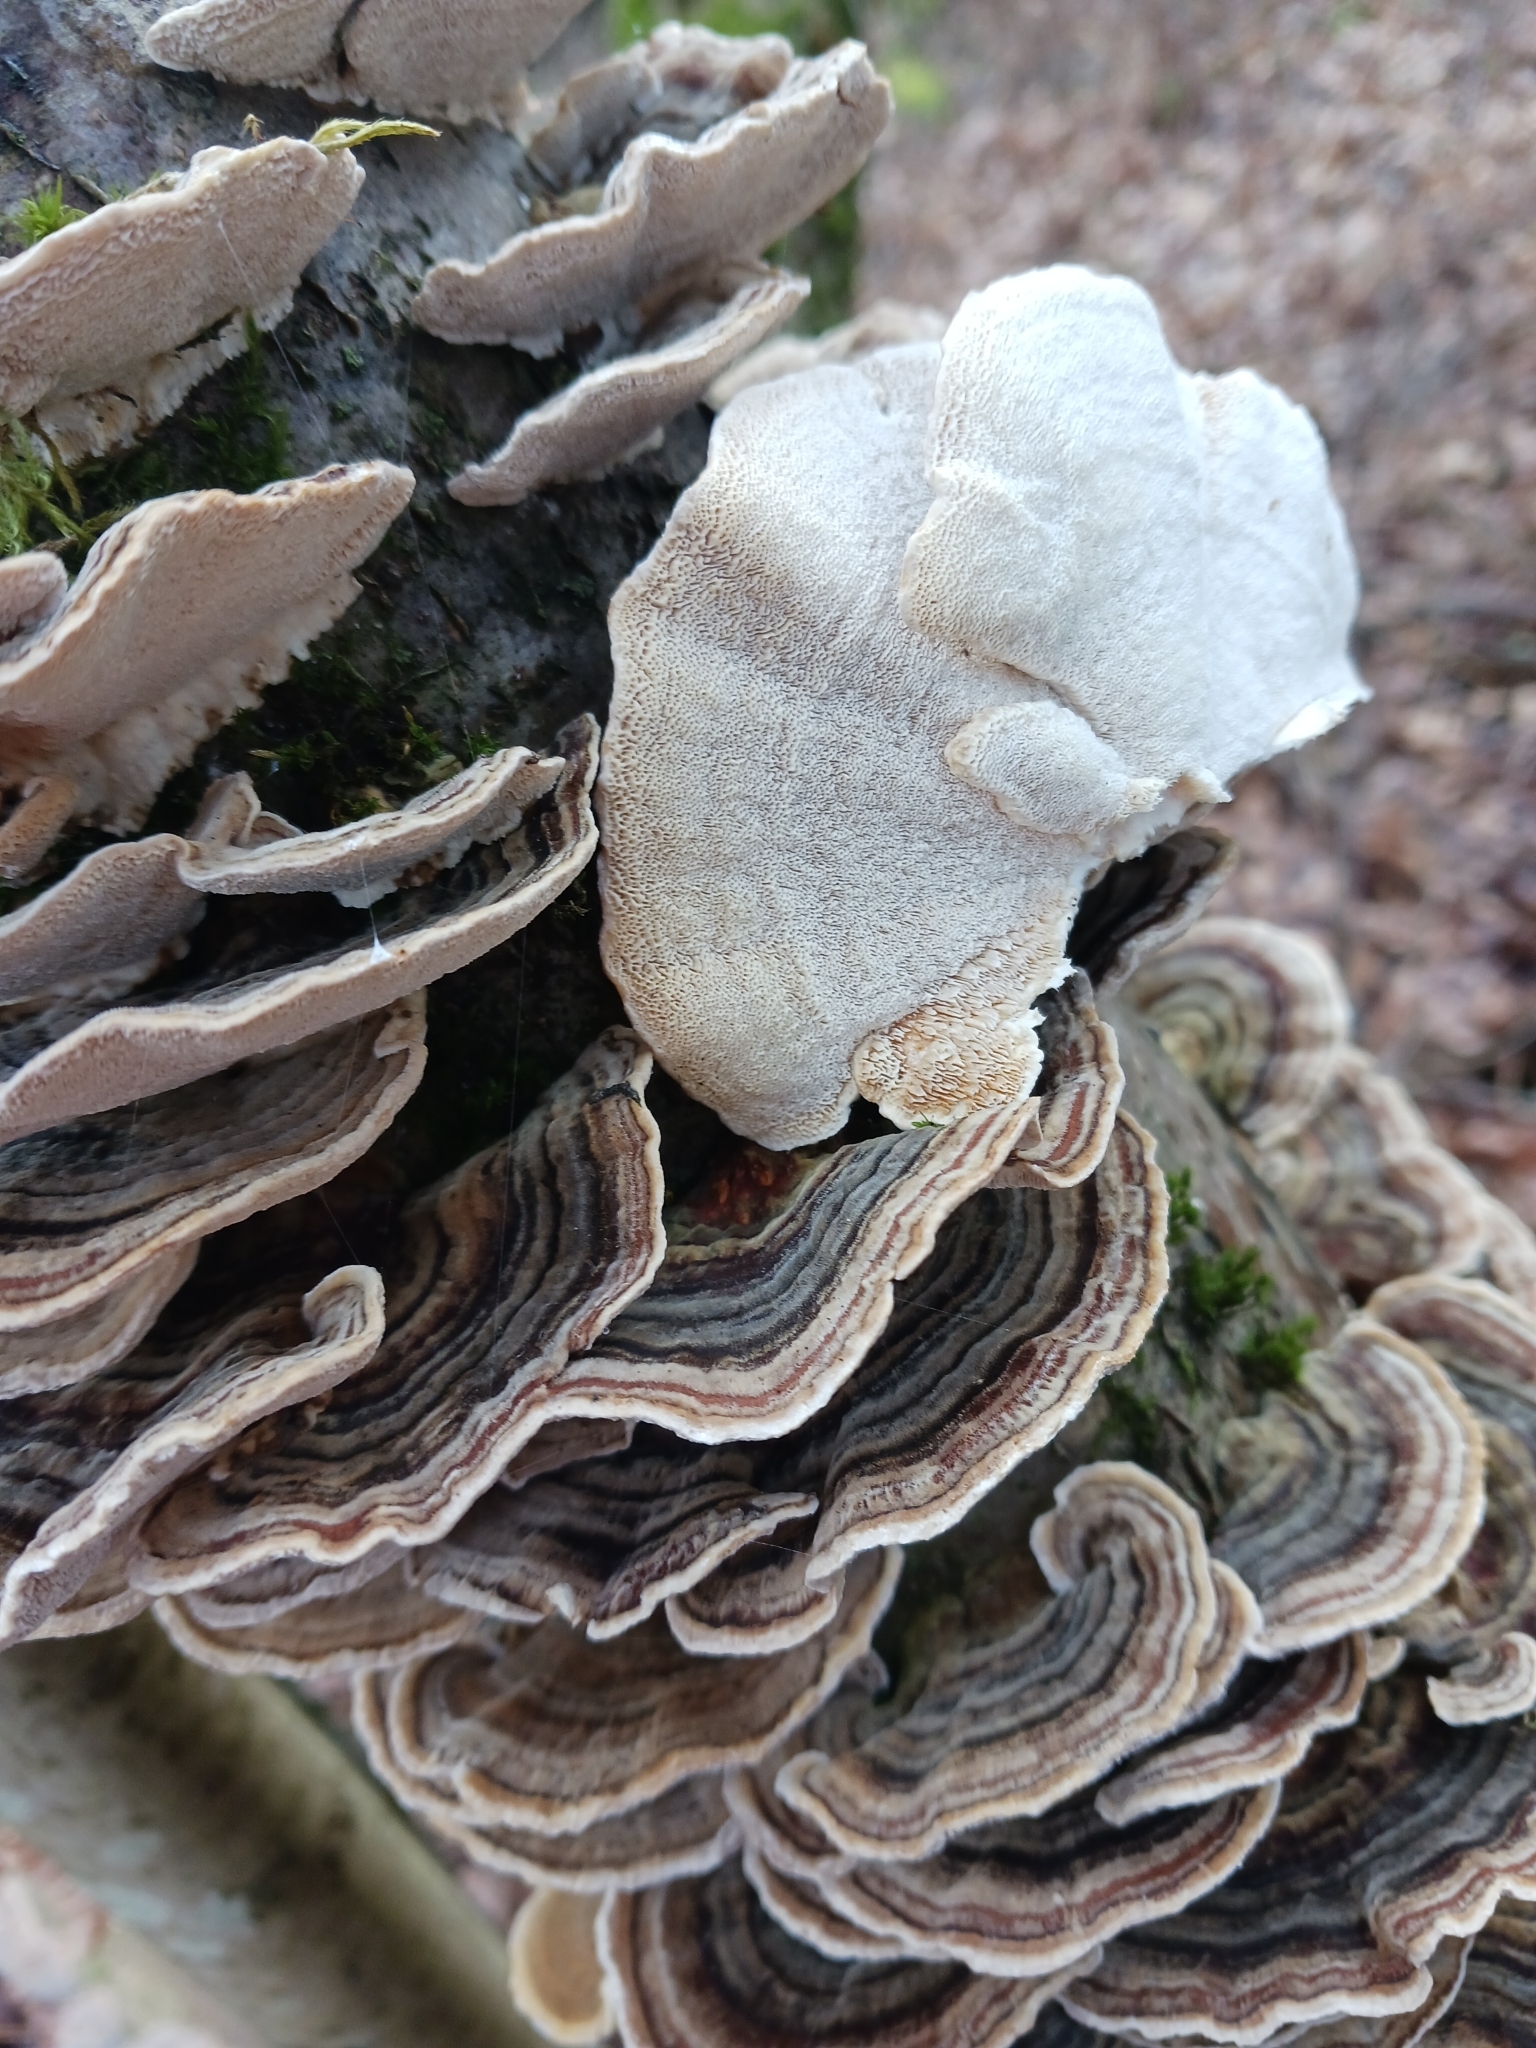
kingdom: Fungi
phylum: Basidiomycota
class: Agaricomycetes
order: Polyporales
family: Polyporaceae
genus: Trametes
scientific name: Trametes versicolor
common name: Turkeytail
